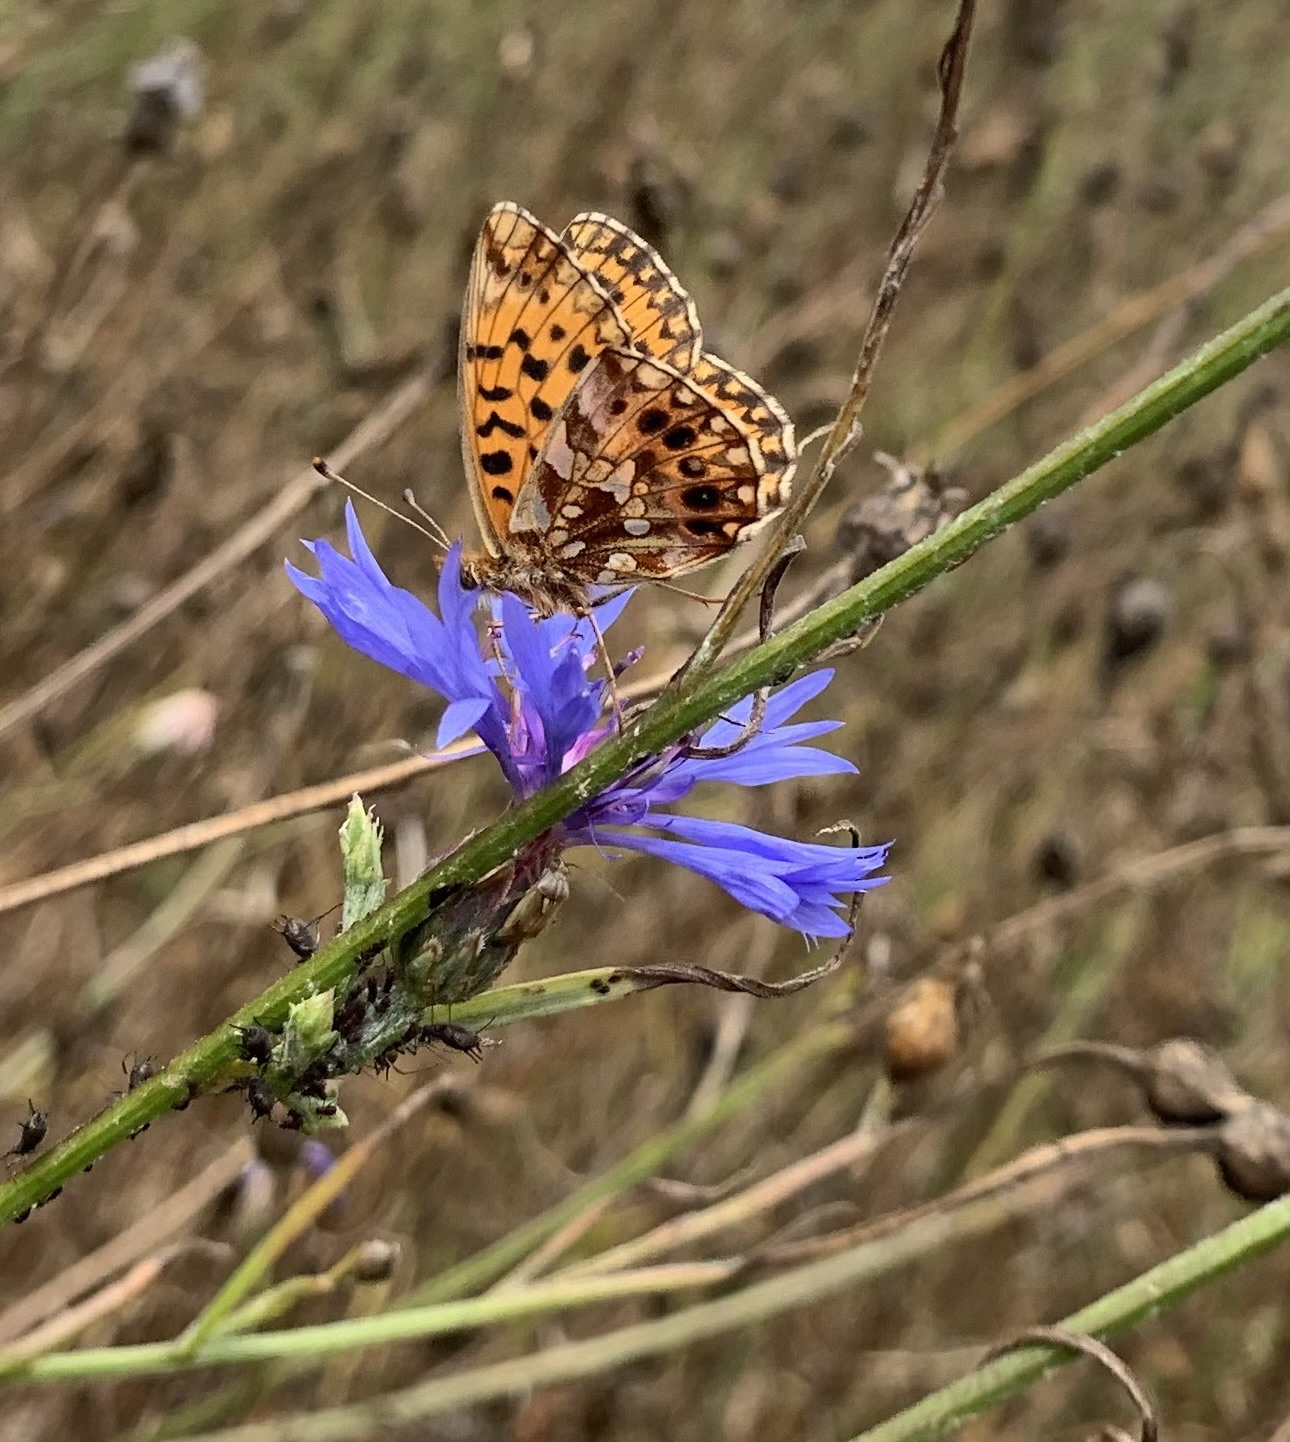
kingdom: Animalia
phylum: Arthropoda
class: Insecta
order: Lepidoptera
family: Nymphalidae
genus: Boloria
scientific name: Boloria dia
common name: Weaver's fritillary
